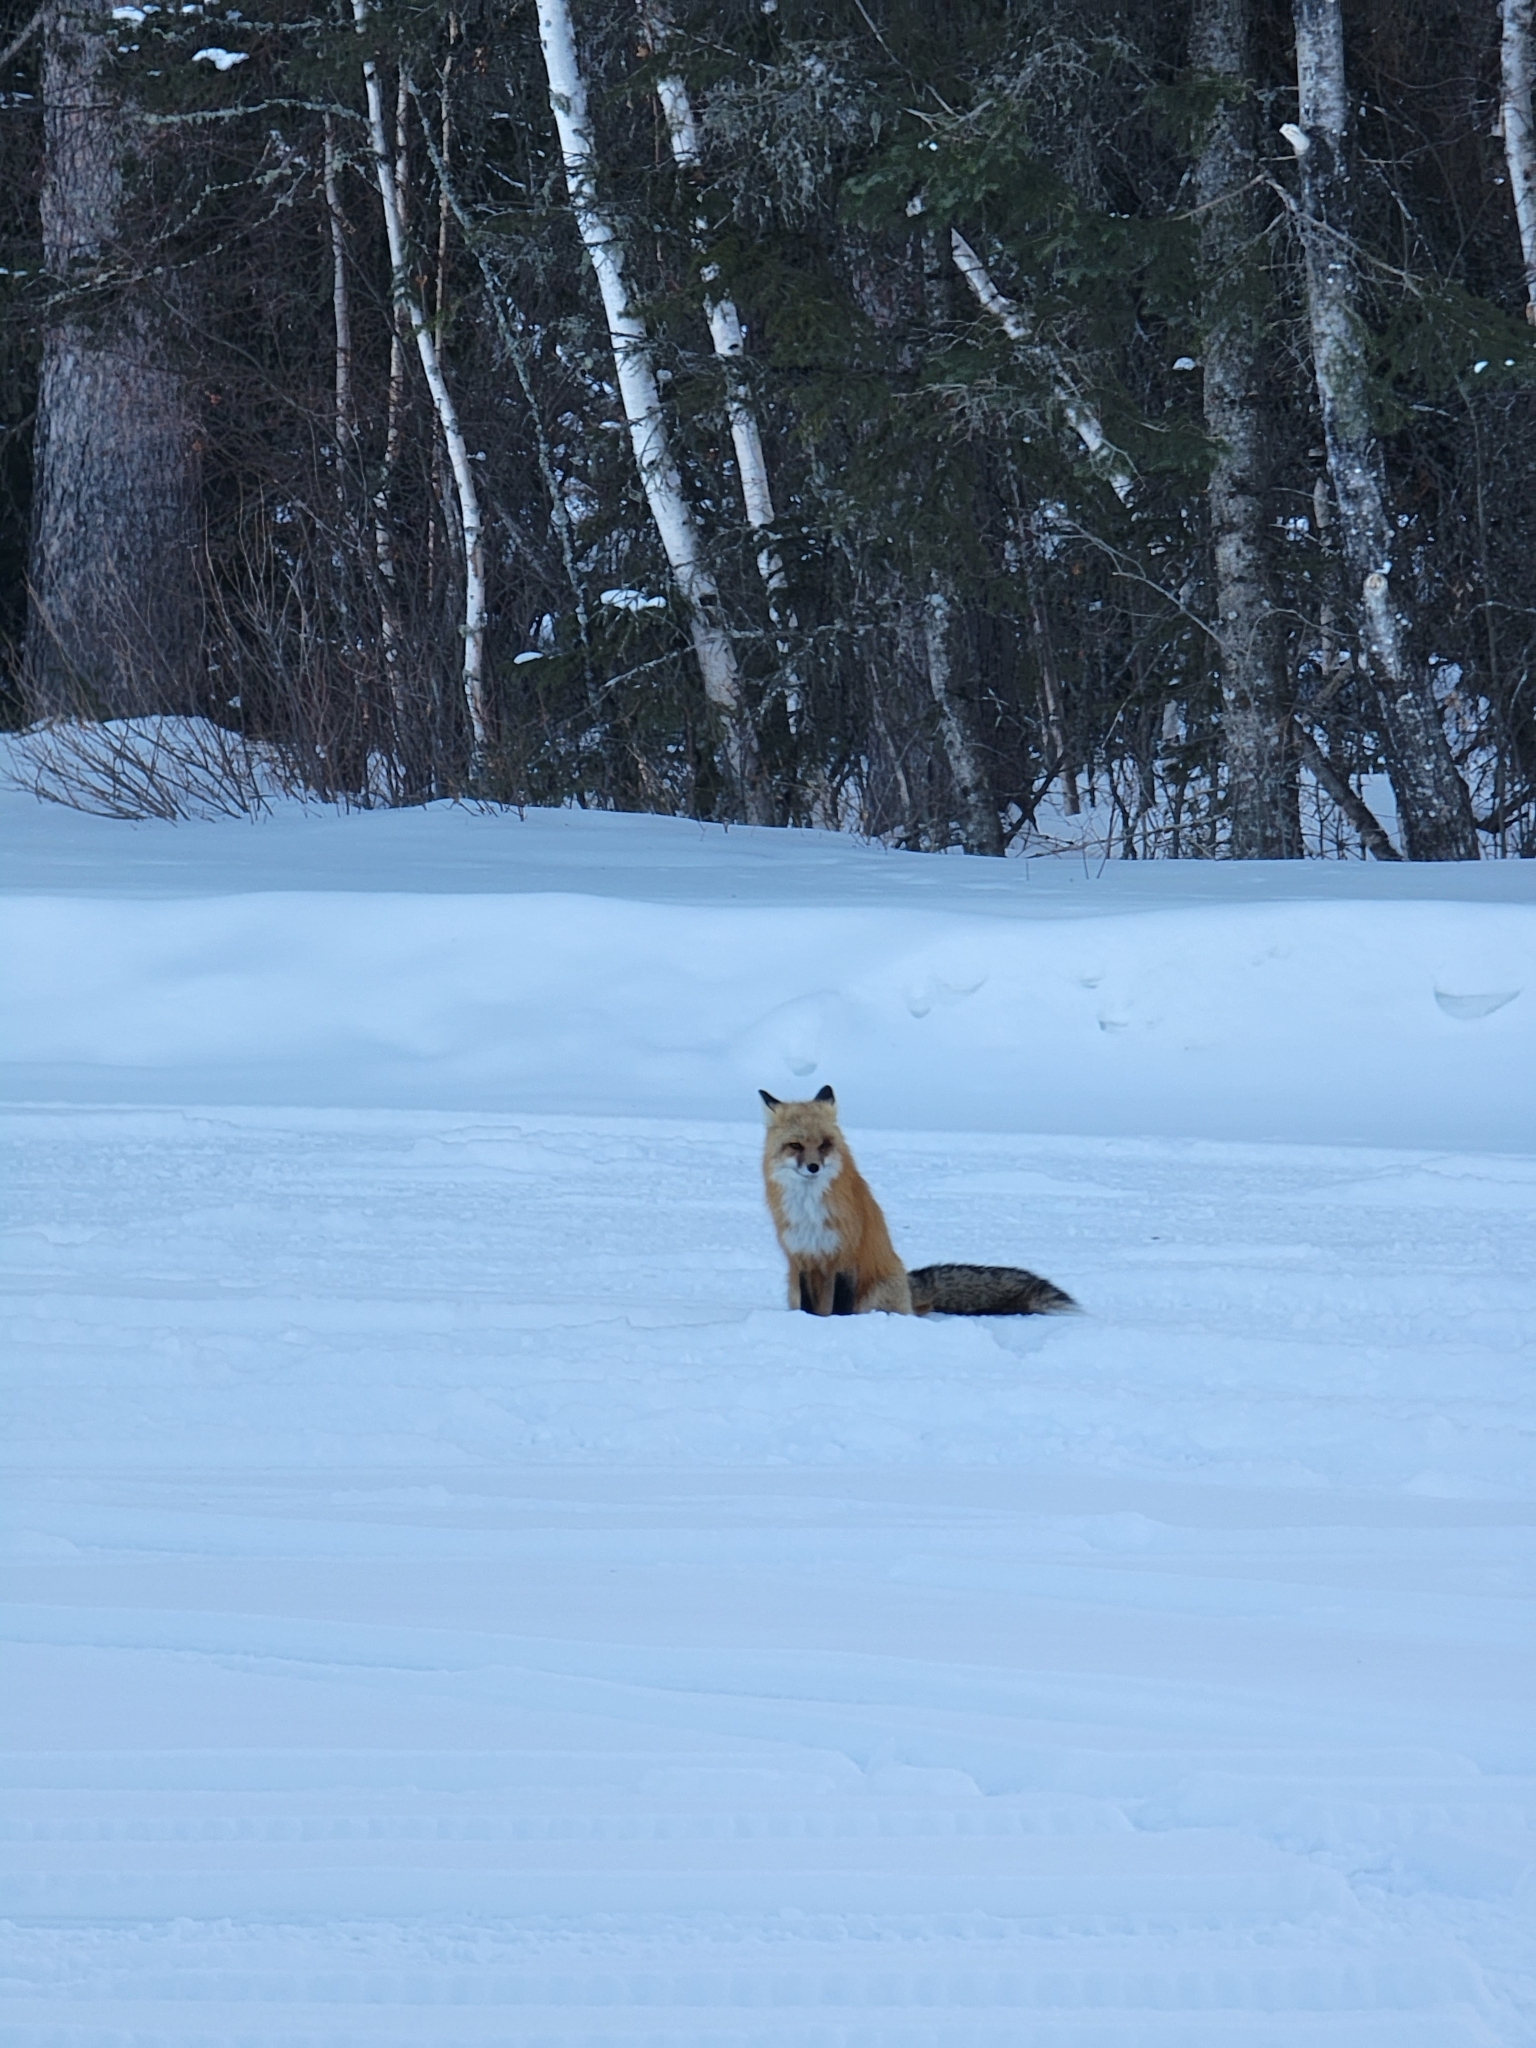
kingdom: Animalia
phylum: Chordata
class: Mammalia
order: Carnivora
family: Canidae
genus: Vulpes
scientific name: Vulpes vulpes
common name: Red fox
